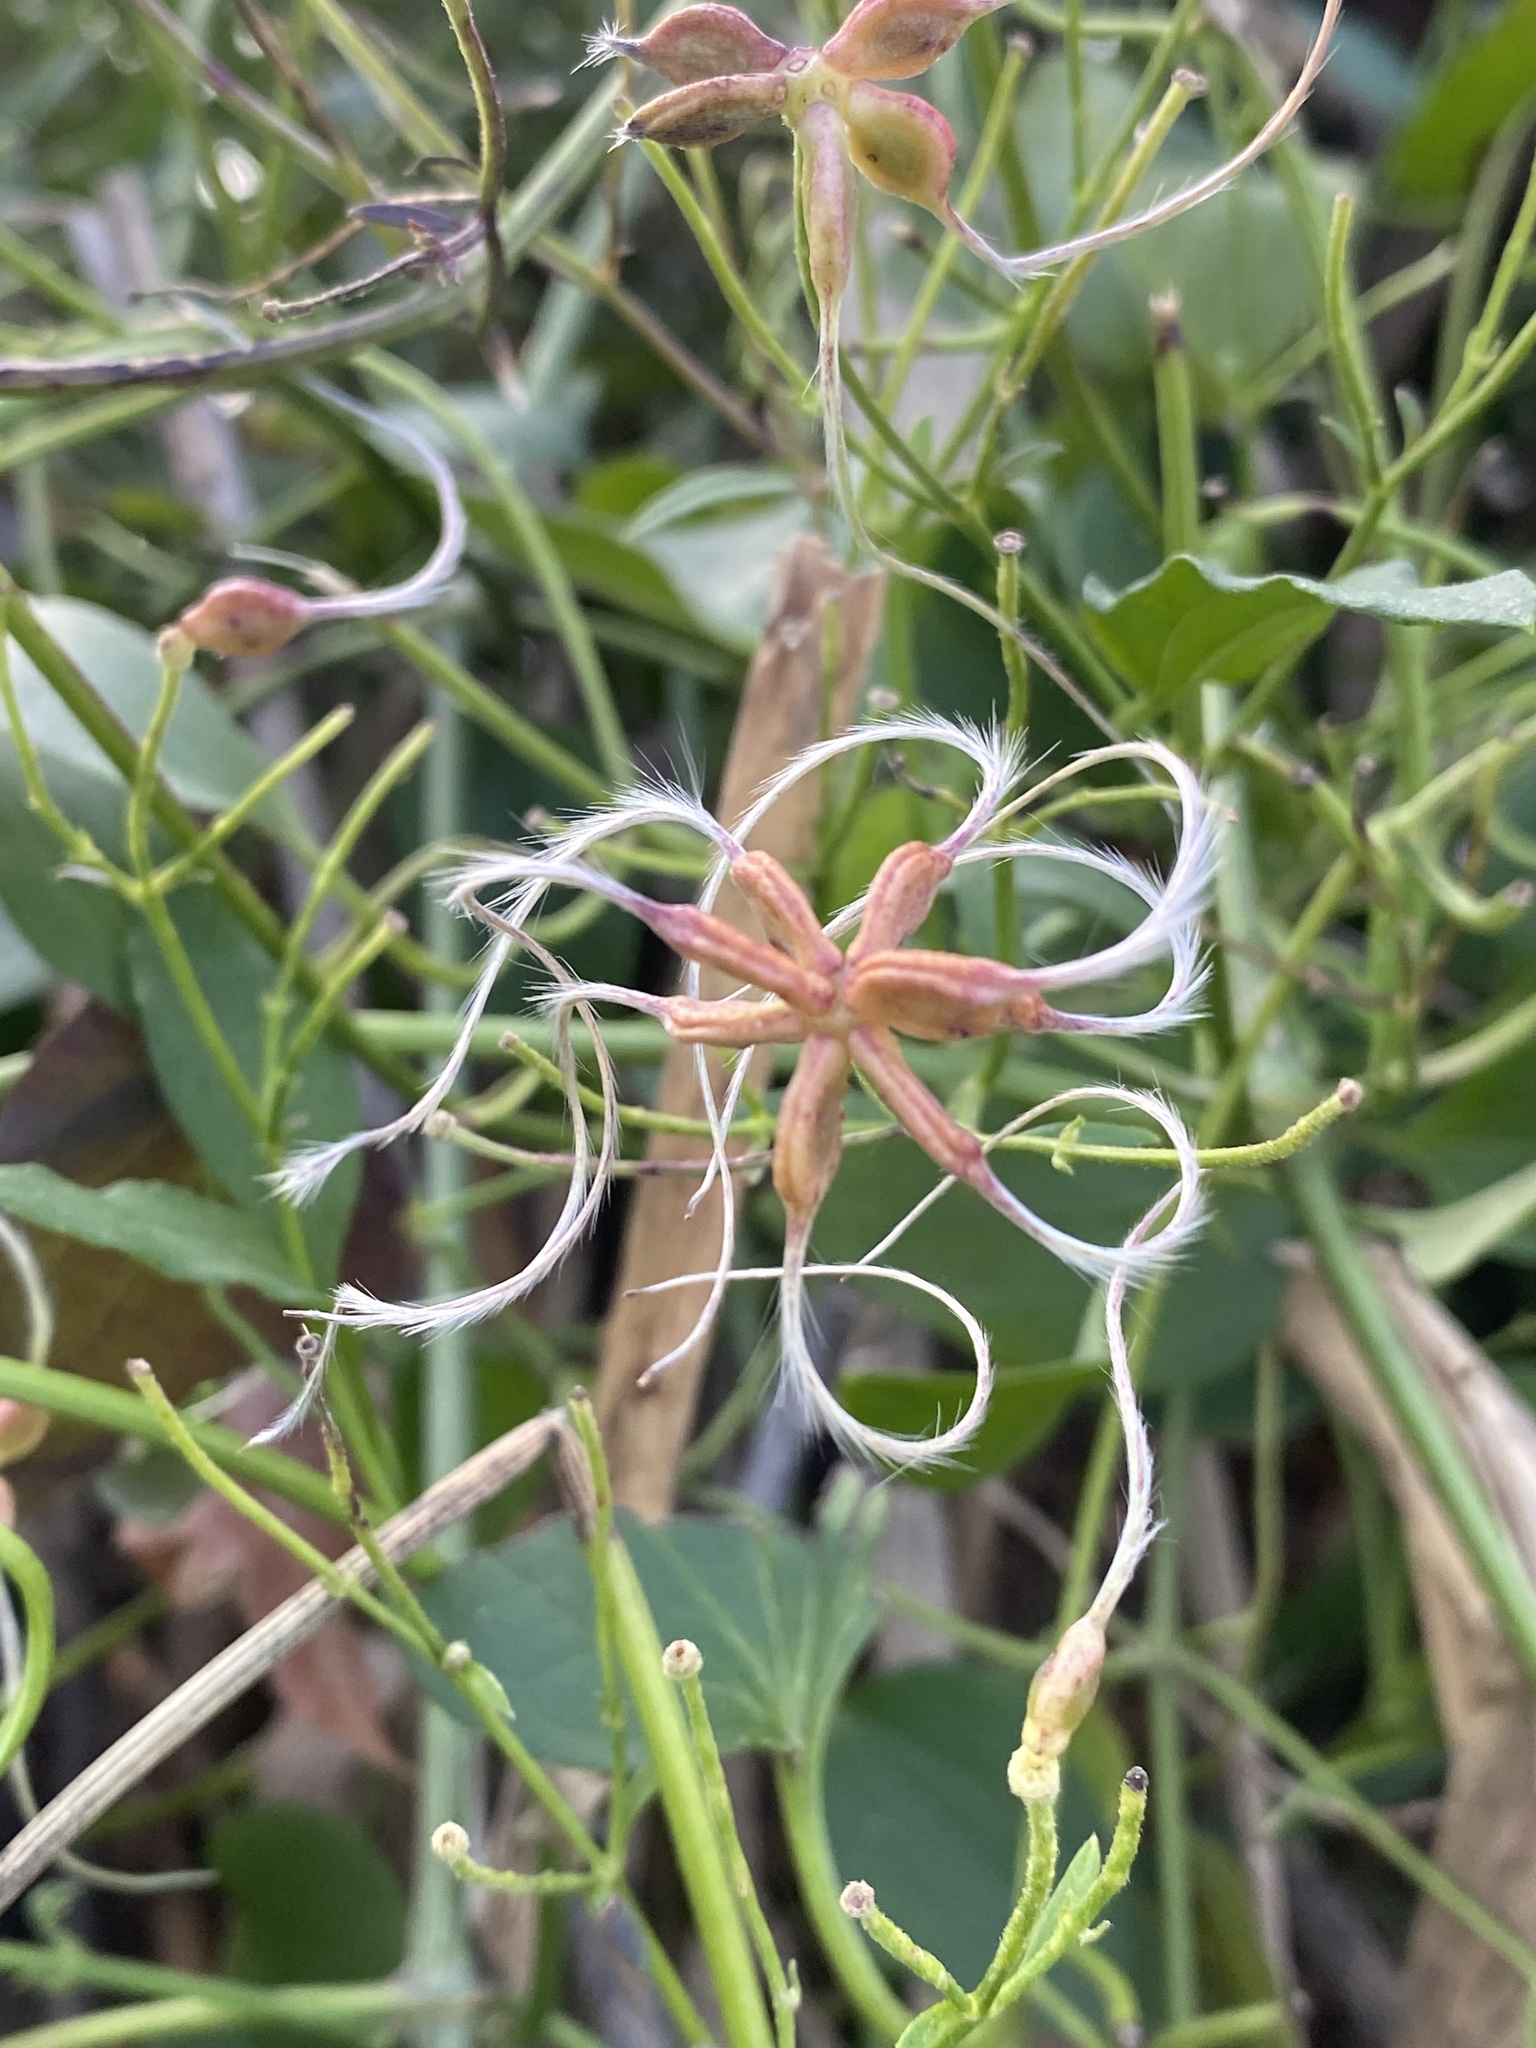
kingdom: Plantae
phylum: Tracheophyta
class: Magnoliopsida
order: Ranunculales
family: Ranunculaceae
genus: Clematis
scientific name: Clematis terniflora
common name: Sweet autumn clematis
